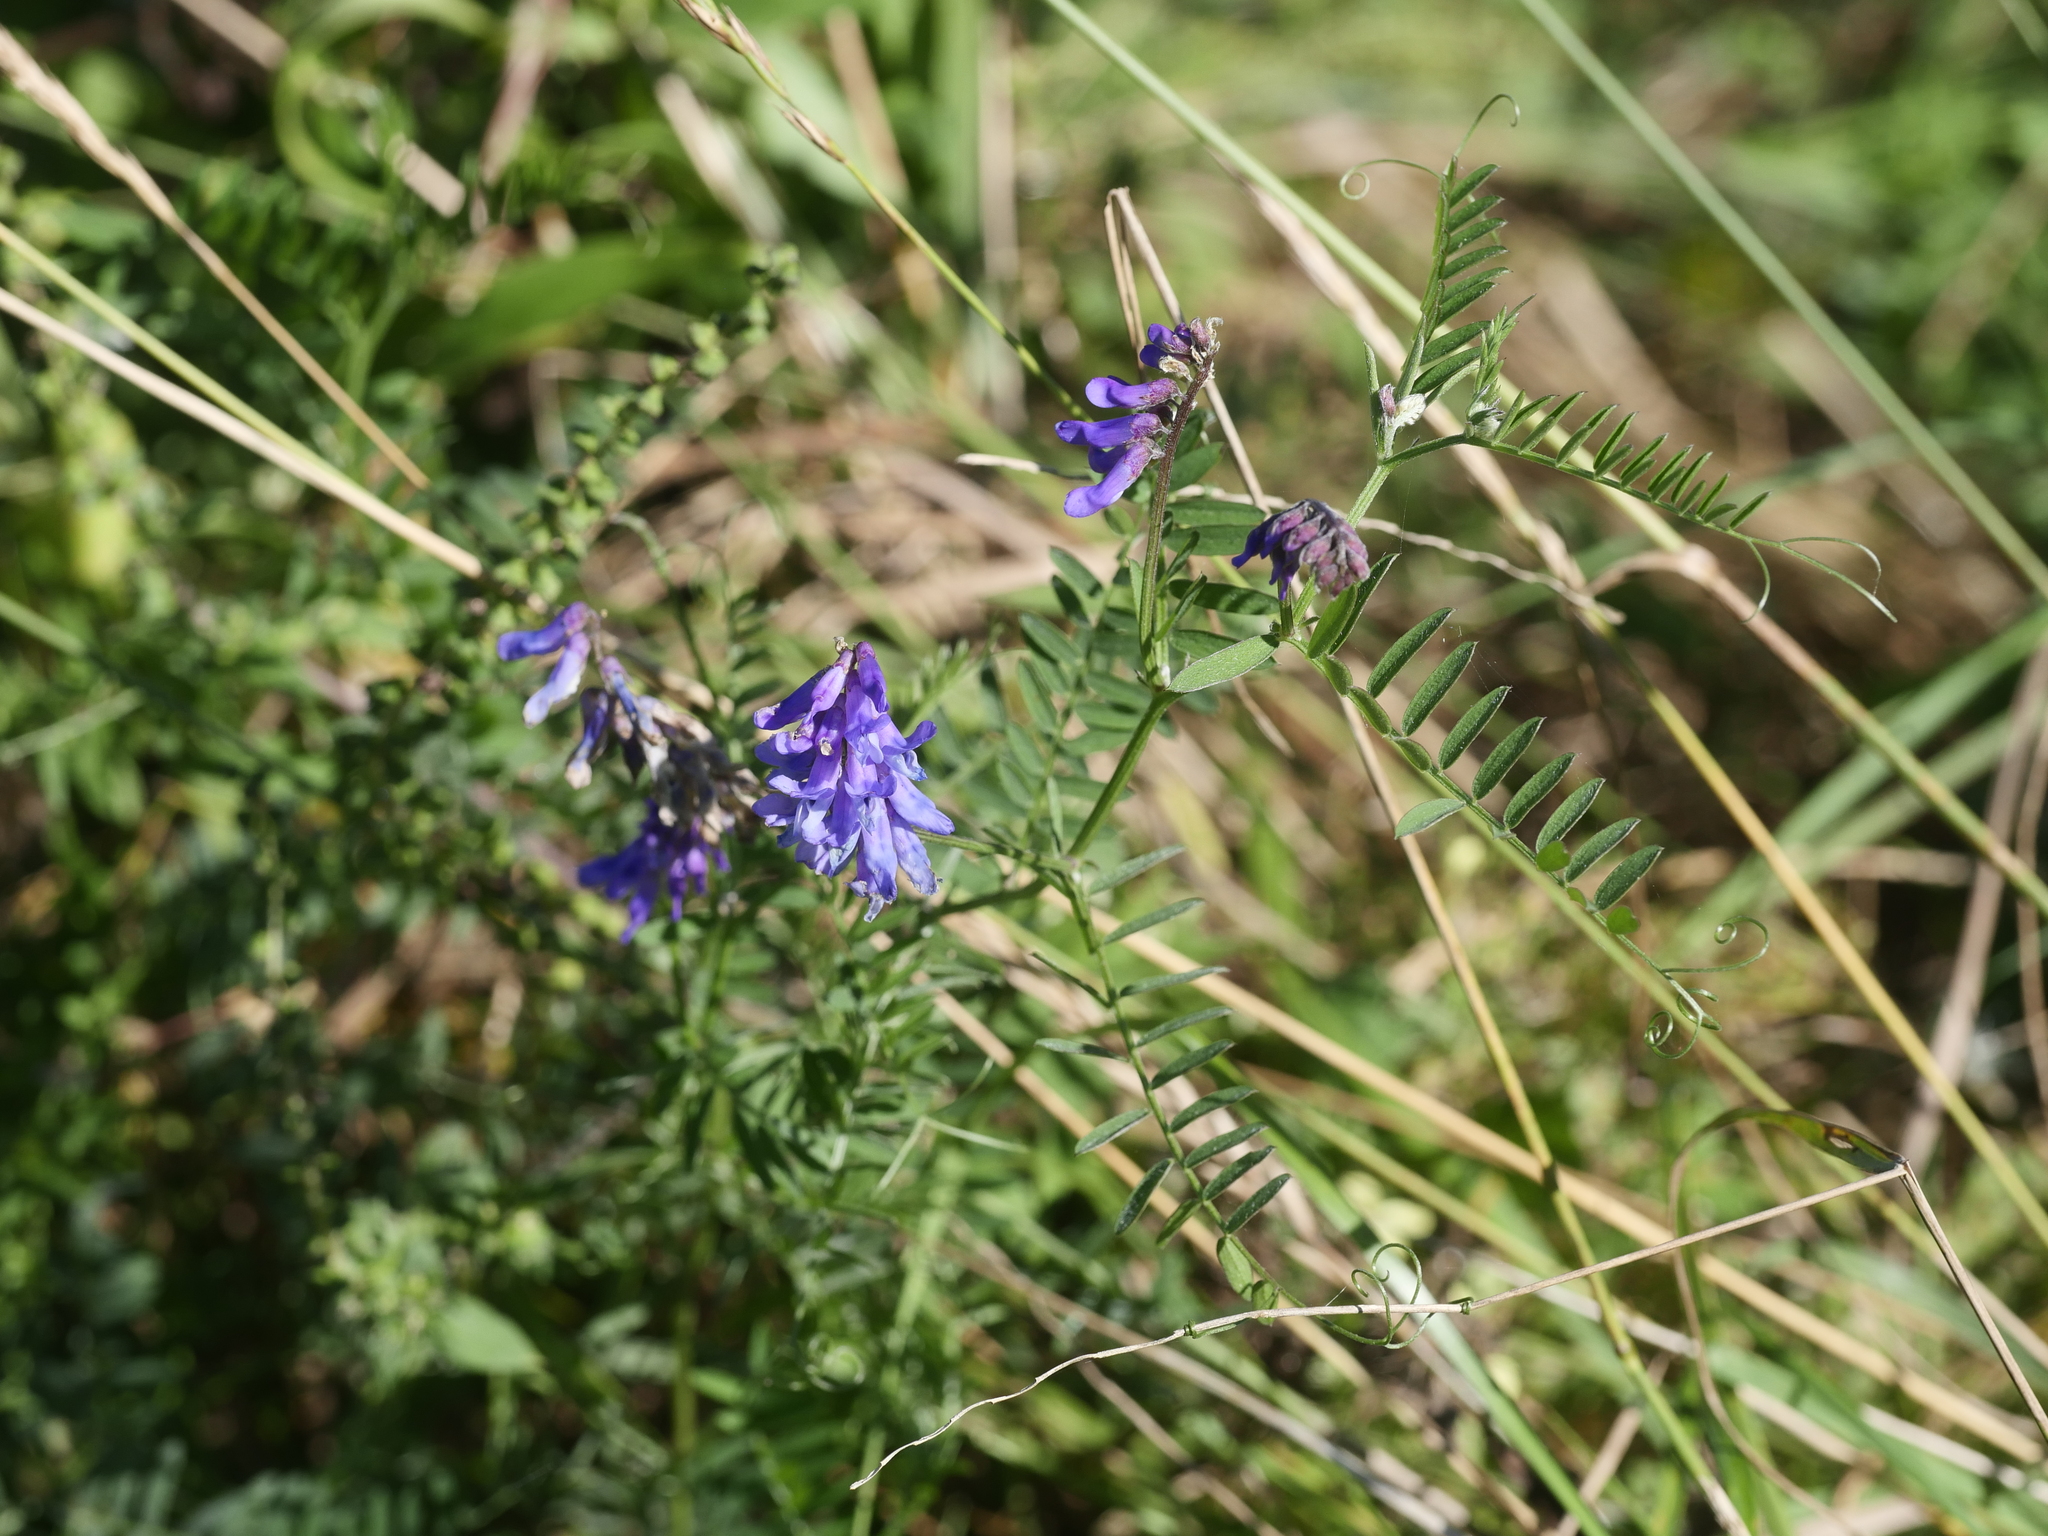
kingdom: Plantae
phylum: Tracheophyta
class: Magnoliopsida
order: Fabales
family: Fabaceae
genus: Vicia
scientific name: Vicia cracca
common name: Bird vetch
